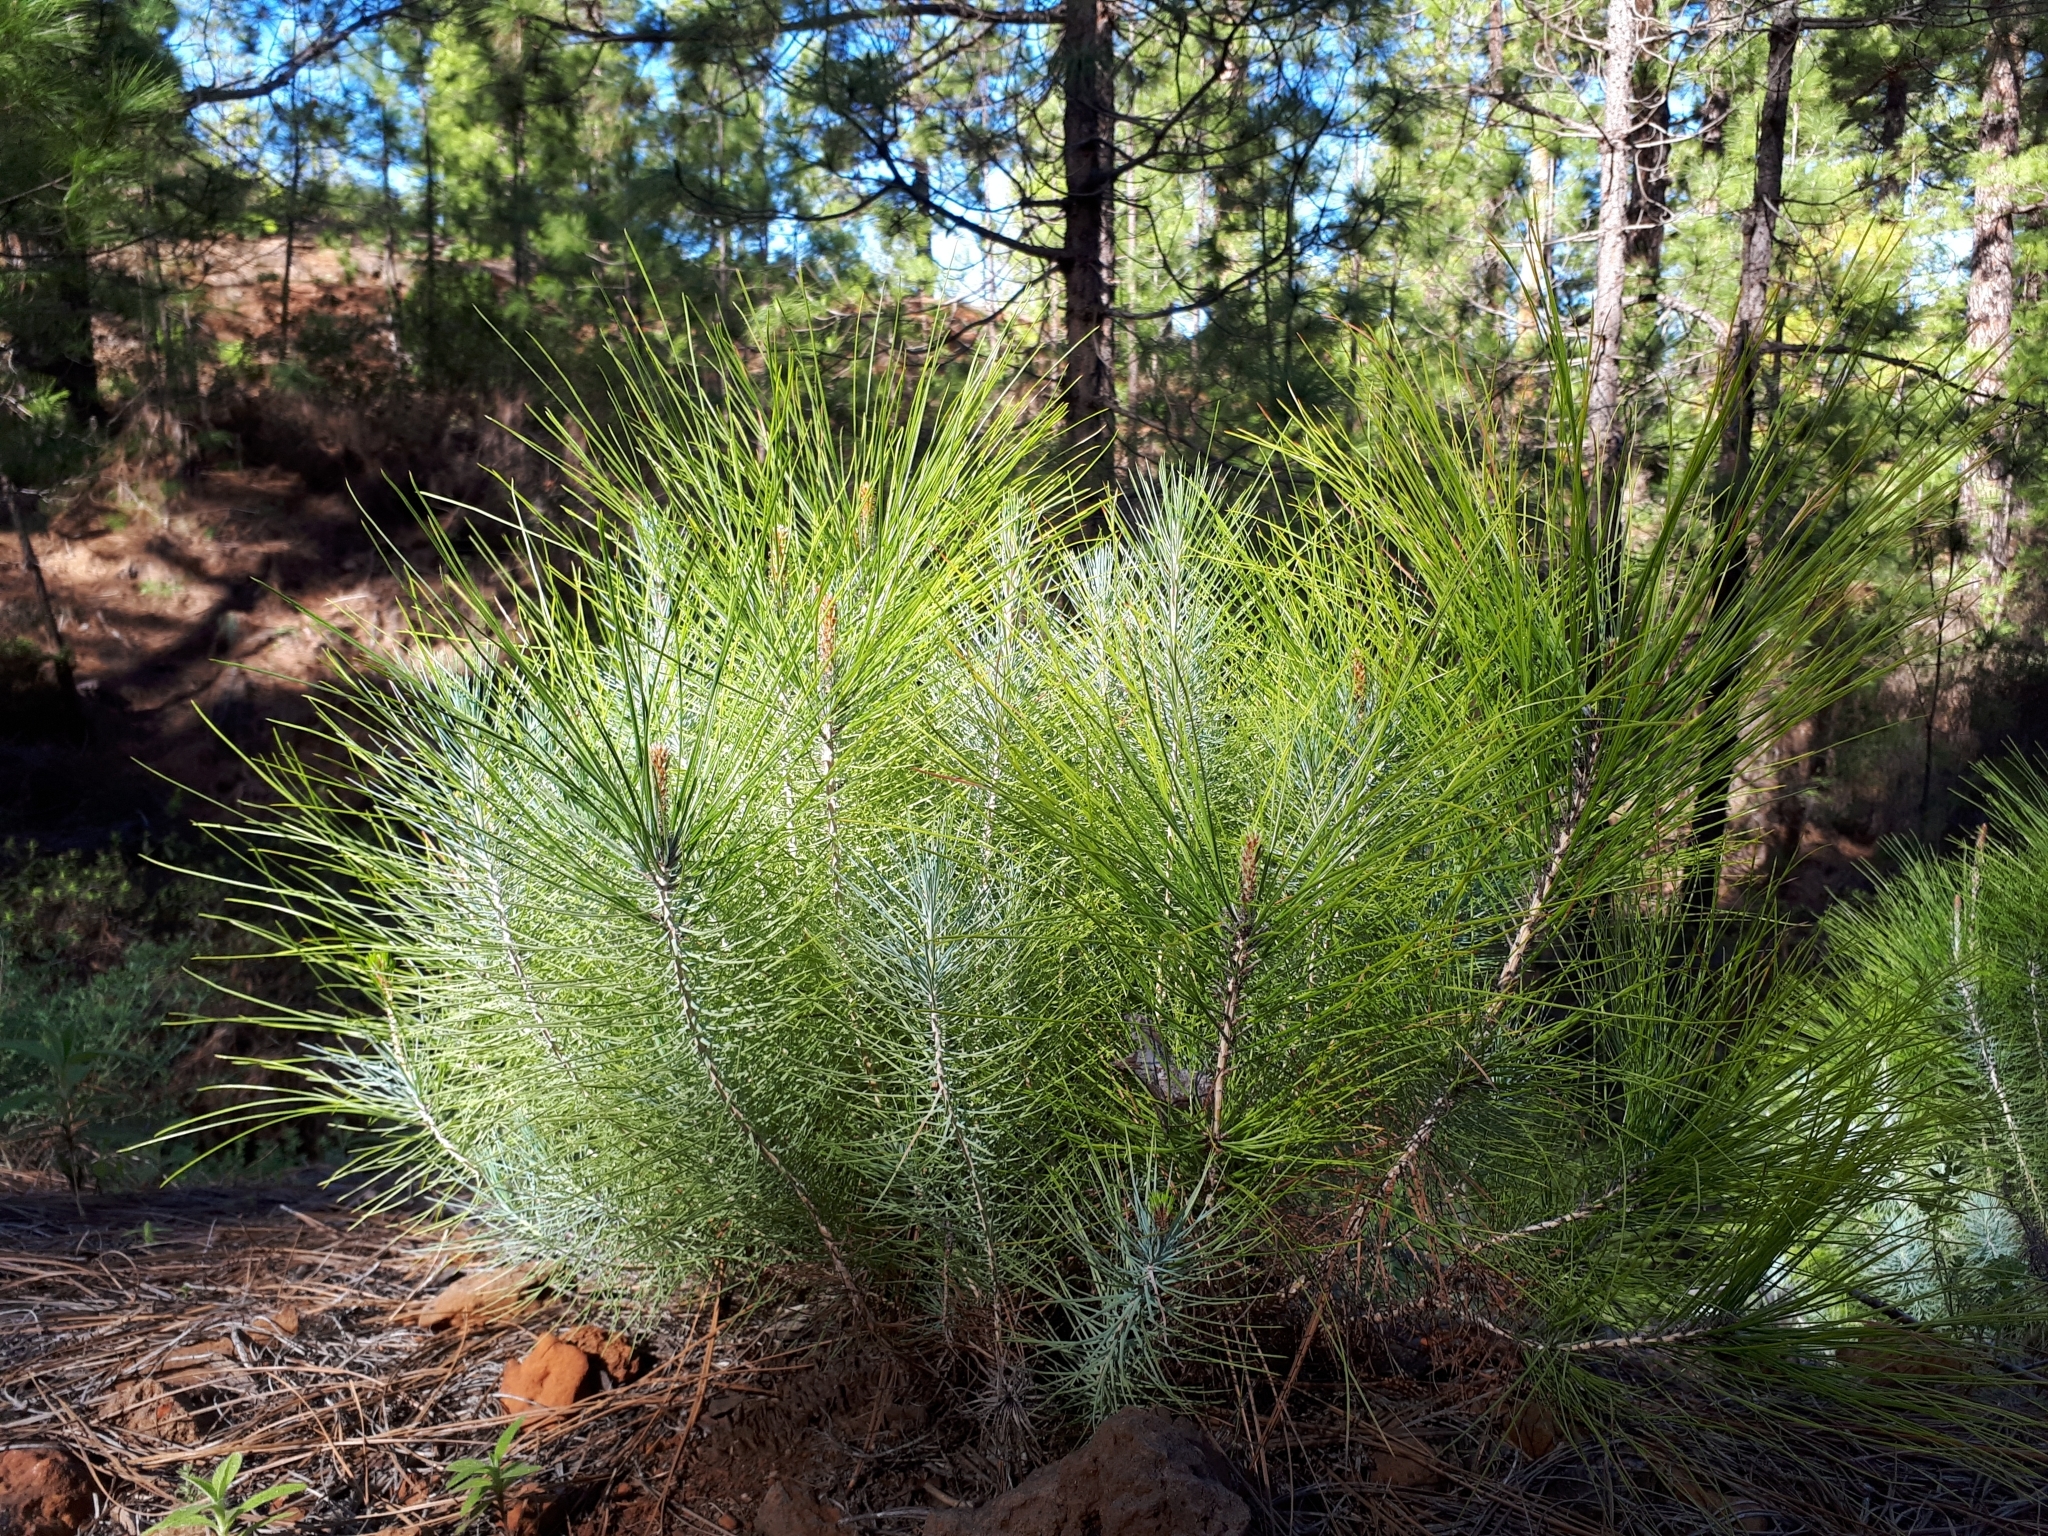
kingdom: Plantae
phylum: Tracheophyta
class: Pinopsida
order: Pinales
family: Pinaceae
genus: Pinus
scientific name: Pinus canariensis
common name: Canary islands pine
